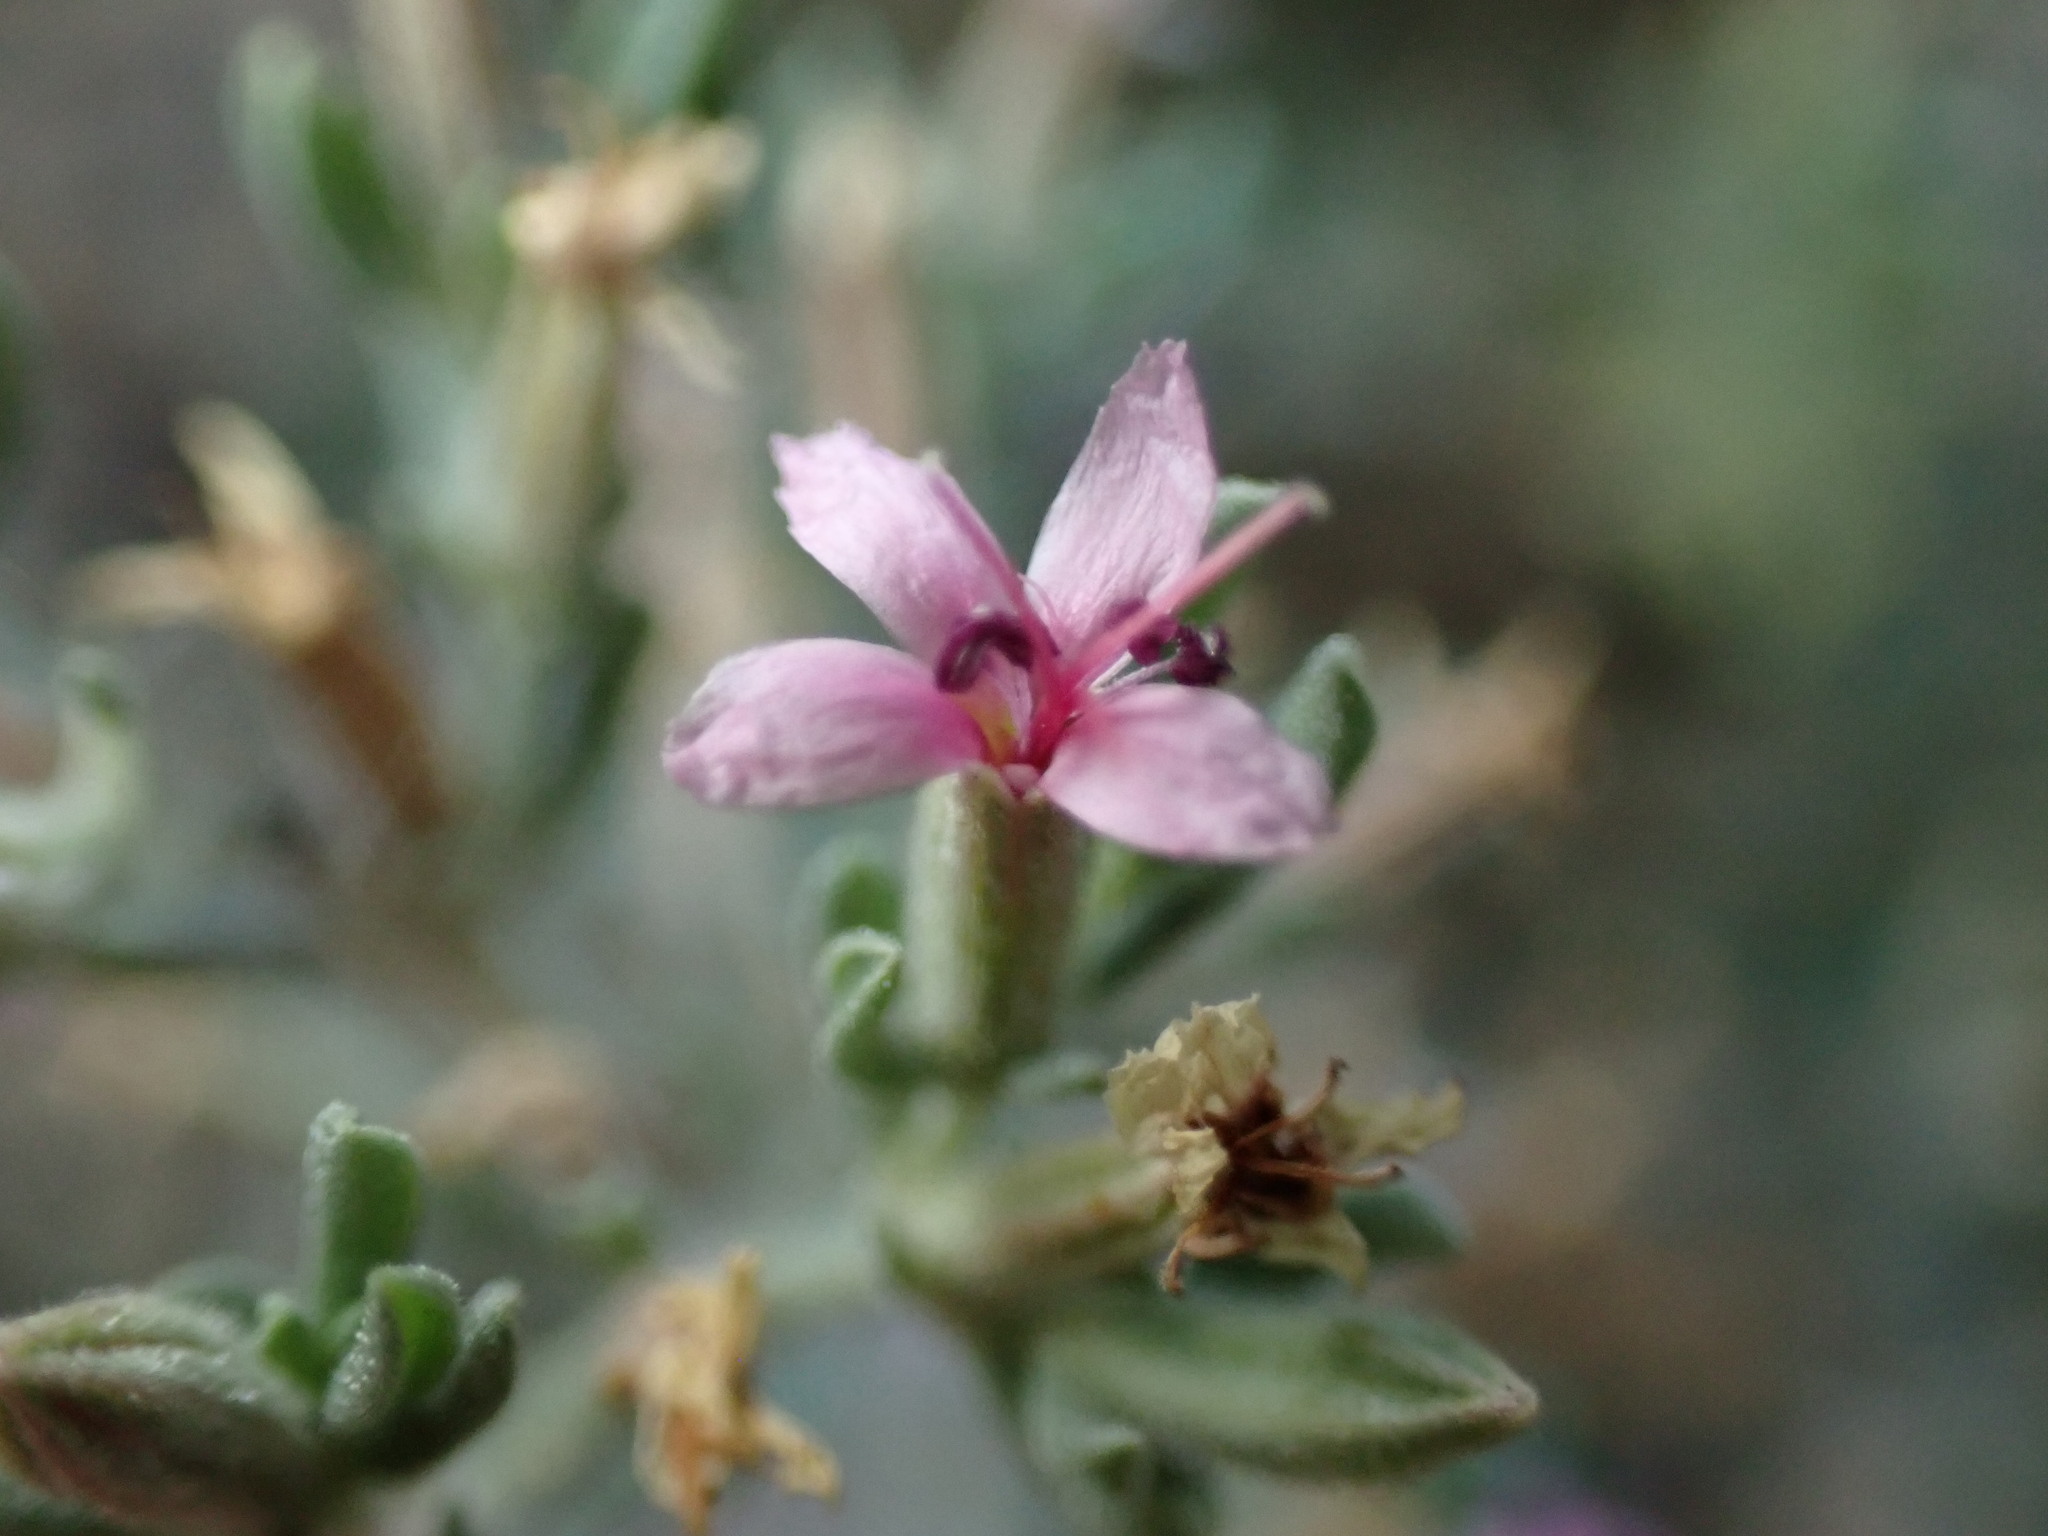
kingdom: Plantae
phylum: Tracheophyta
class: Magnoliopsida
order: Caryophyllales
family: Frankeniaceae
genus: Frankenia
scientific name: Frankenia salina
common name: Alkali seaheath
